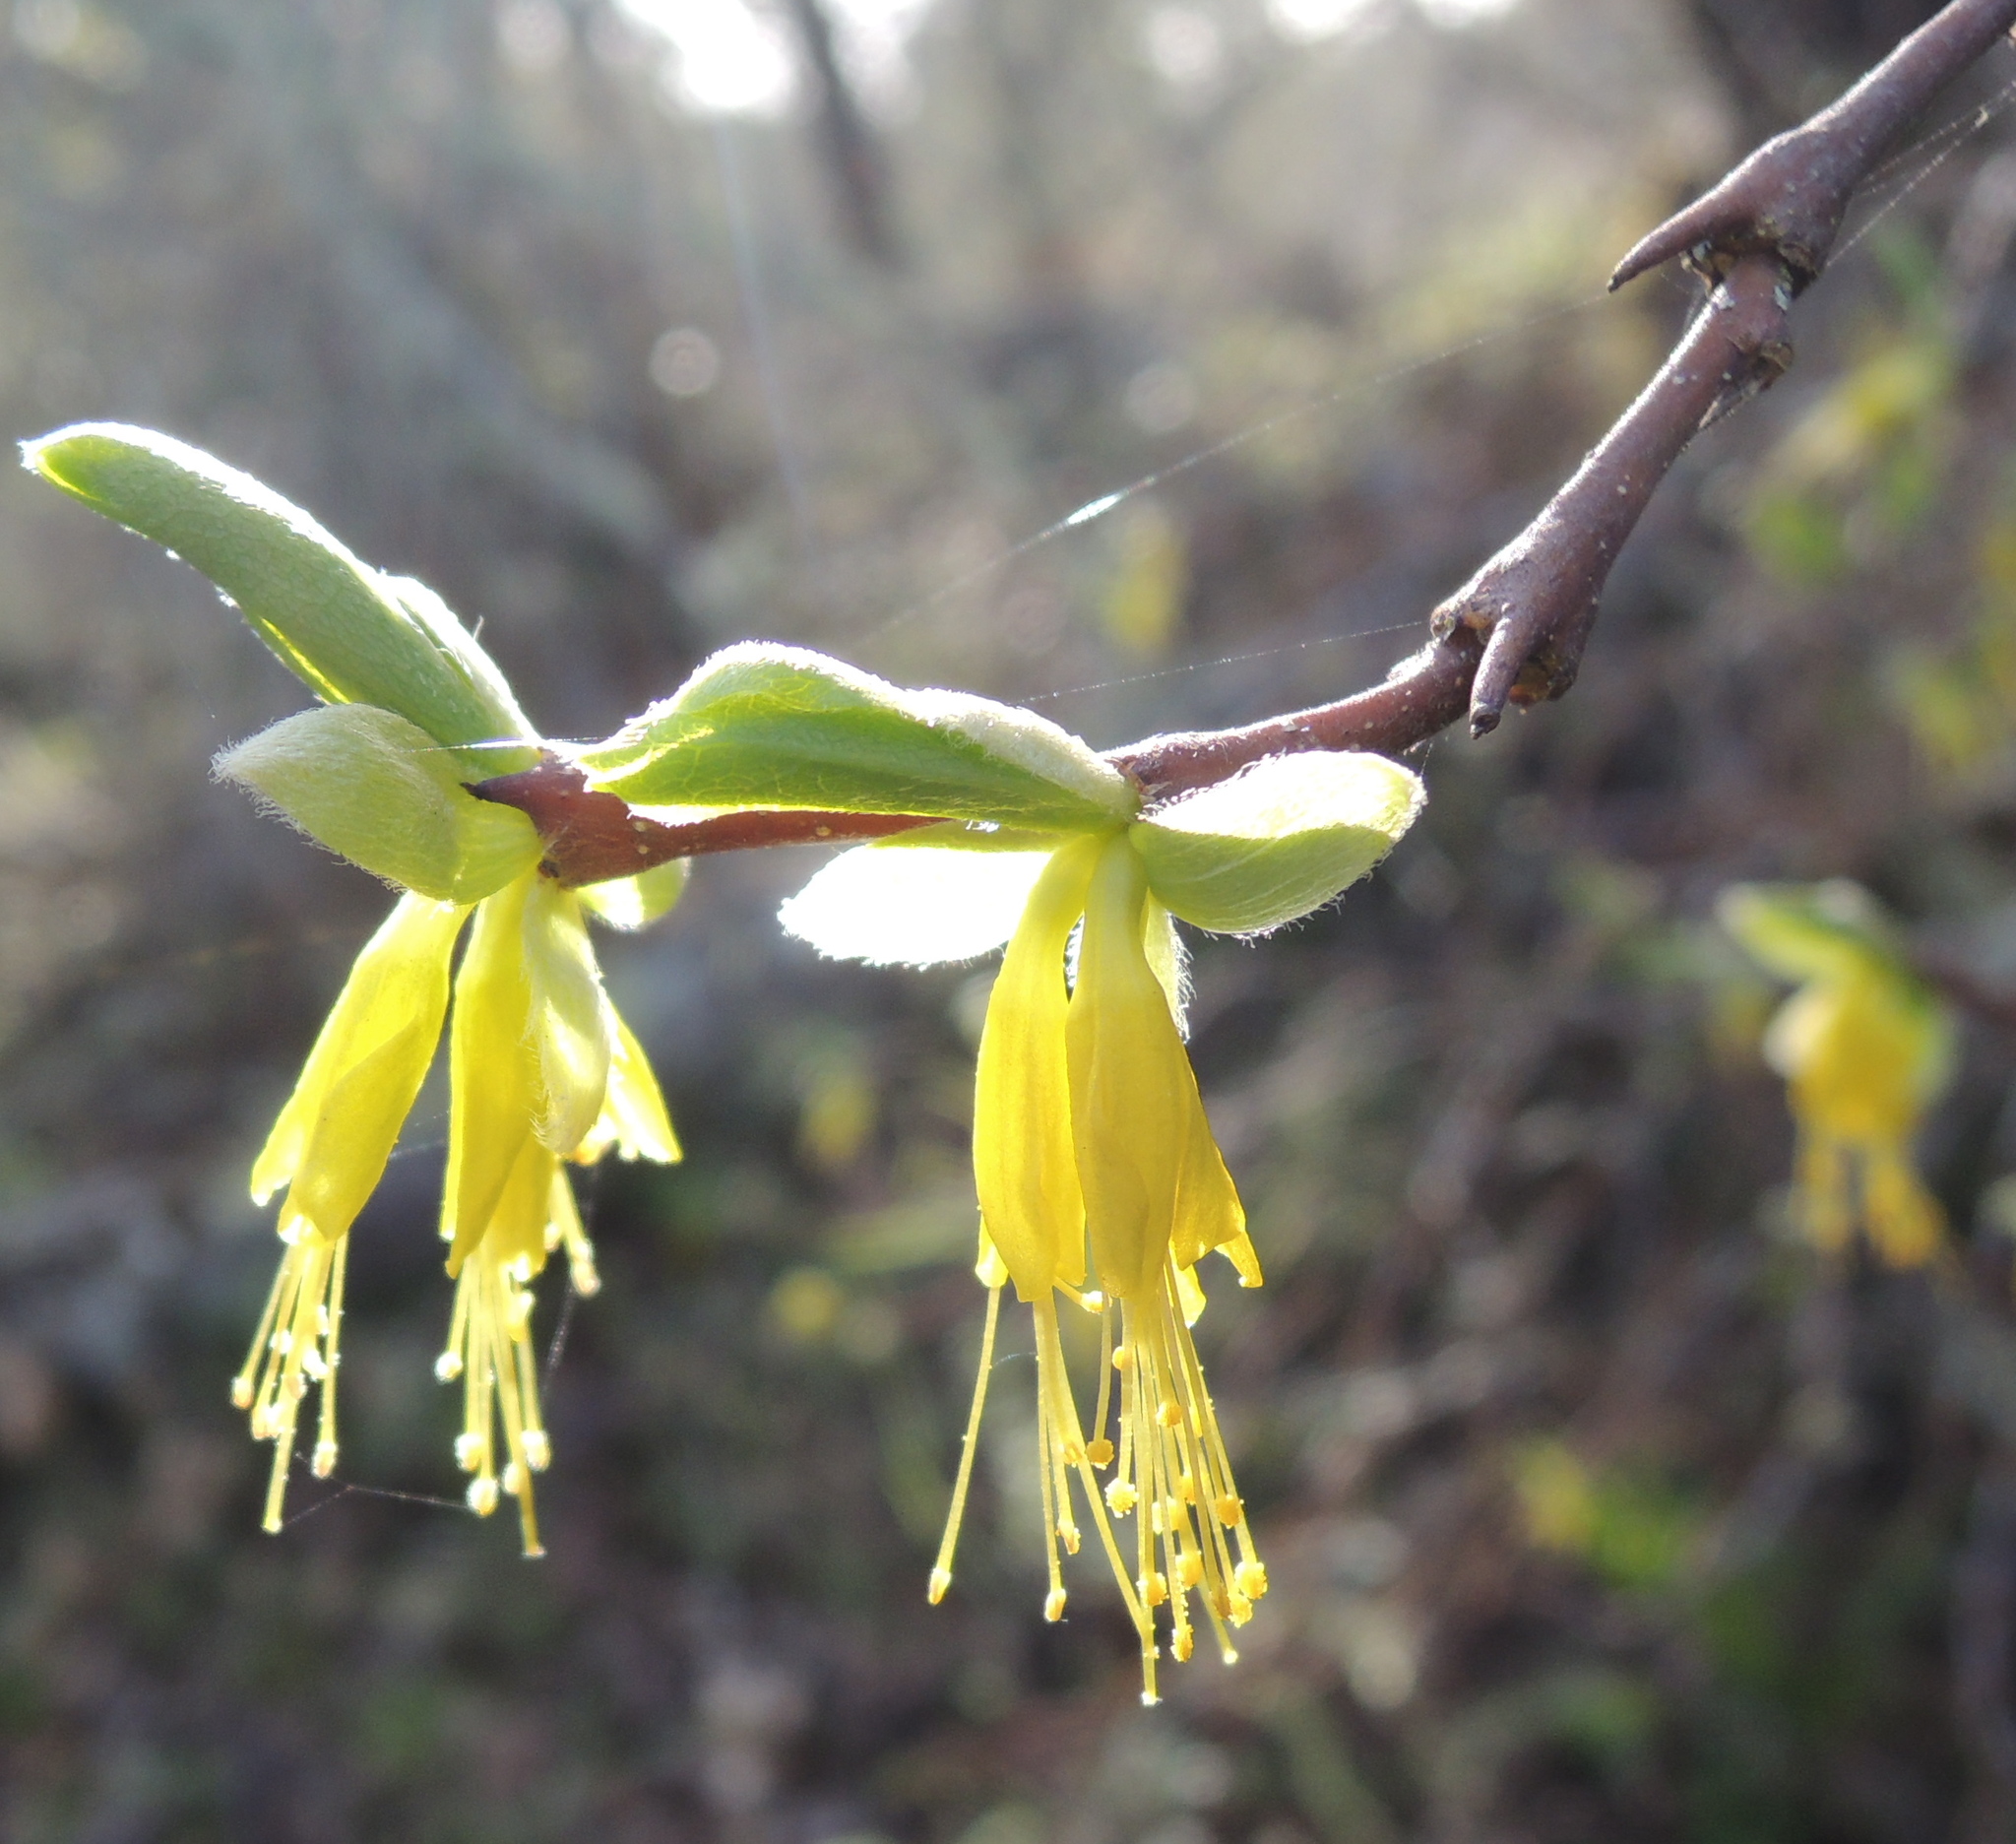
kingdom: Plantae
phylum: Tracheophyta
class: Magnoliopsida
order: Malvales
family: Thymelaeaceae
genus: Dirca
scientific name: Dirca occidentalis
